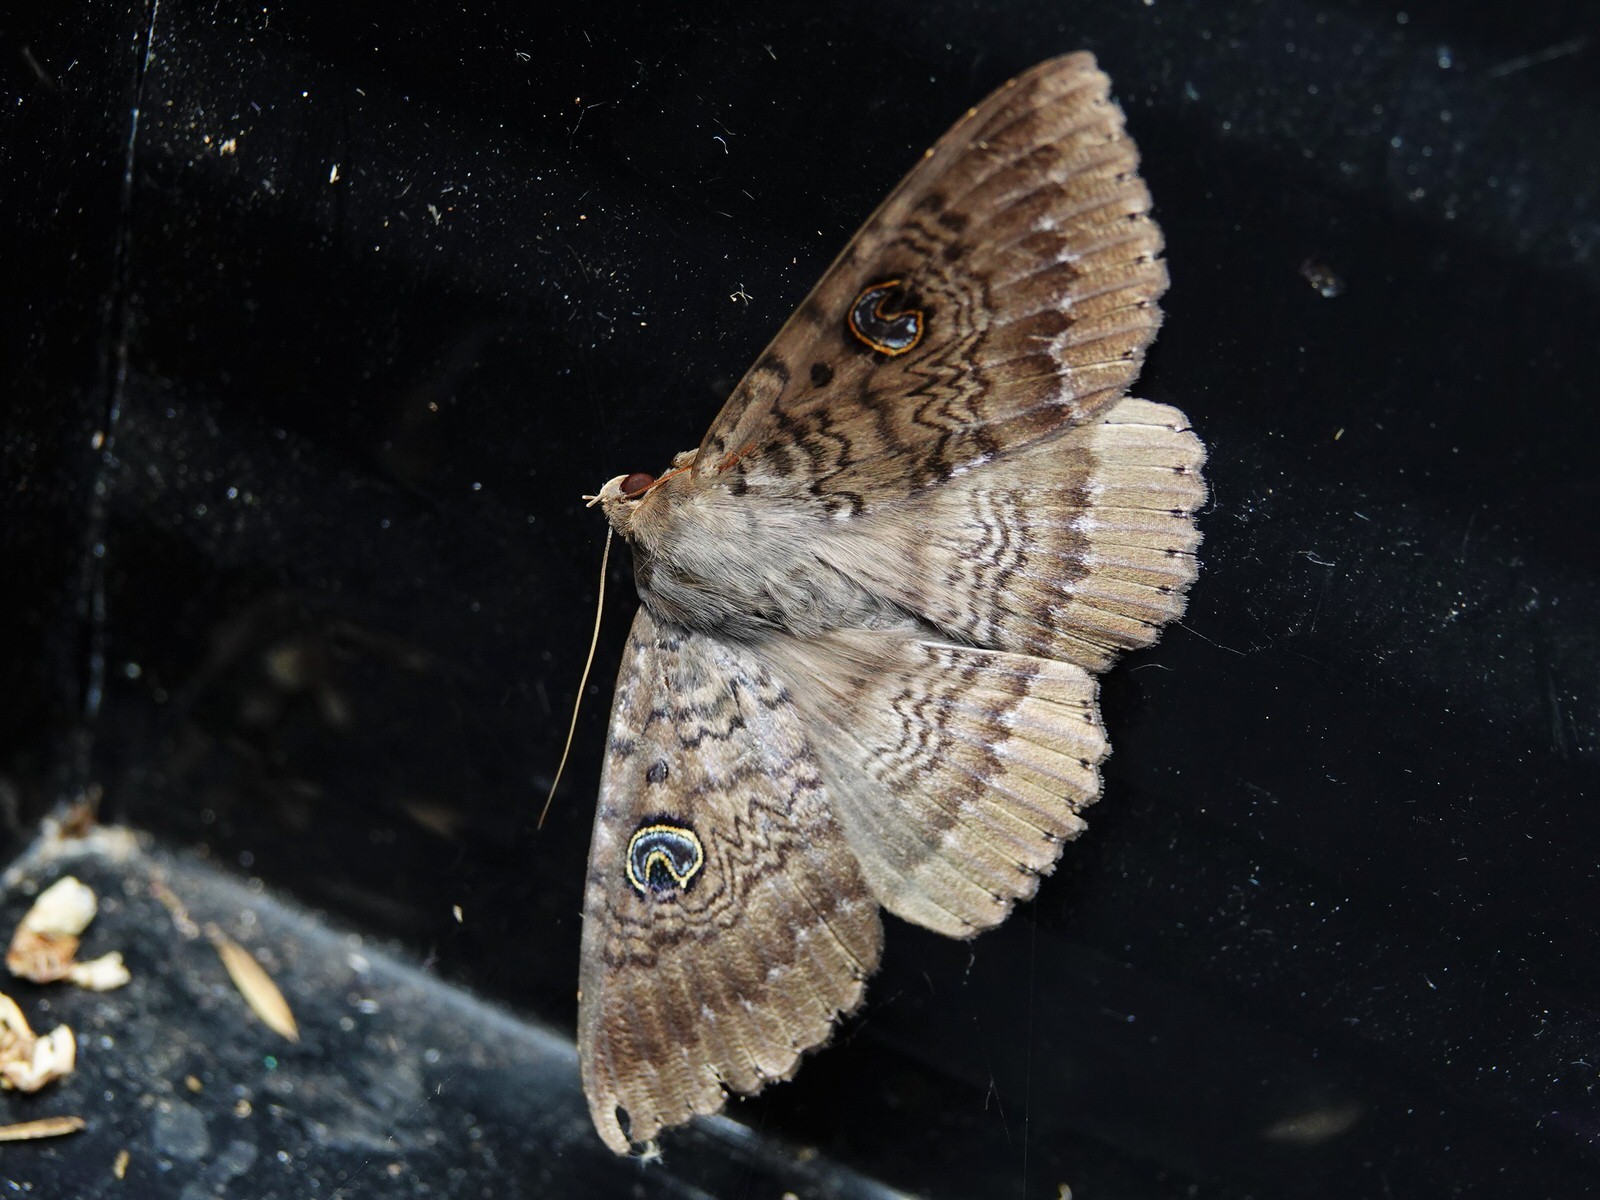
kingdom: Animalia
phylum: Arthropoda
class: Insecta
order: Lepidoptera
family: Erebidae
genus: Dasypodia
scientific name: Dasypodia cymatodes
